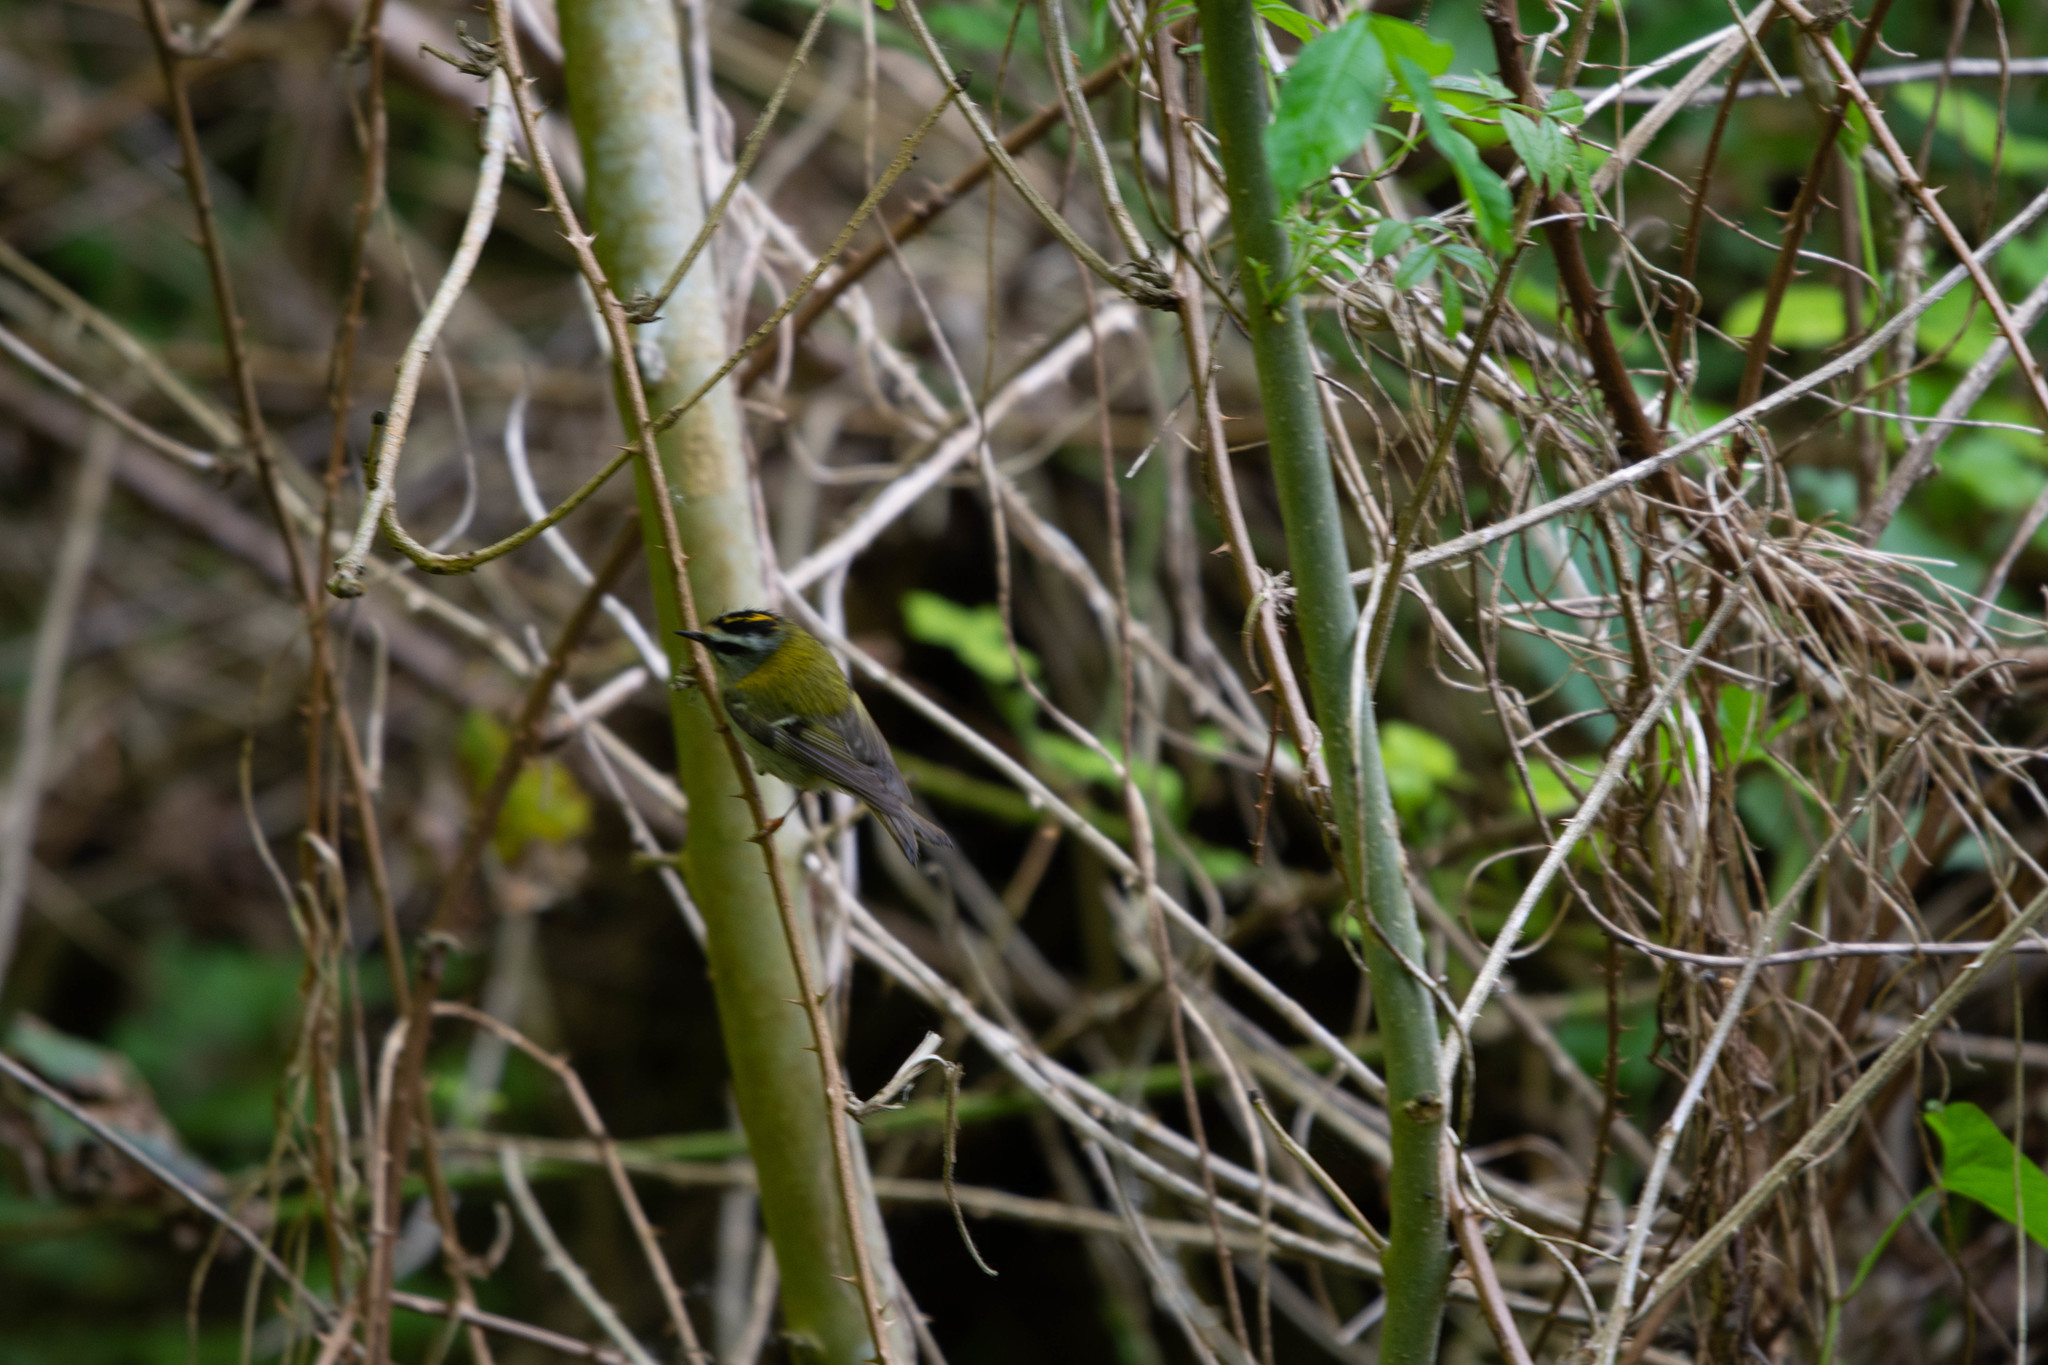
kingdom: Animalia
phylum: Chordata
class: Aves
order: Passeriformes
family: Regulidae
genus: Regulus
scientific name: Regulus ignicapilla
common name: Firecrest
